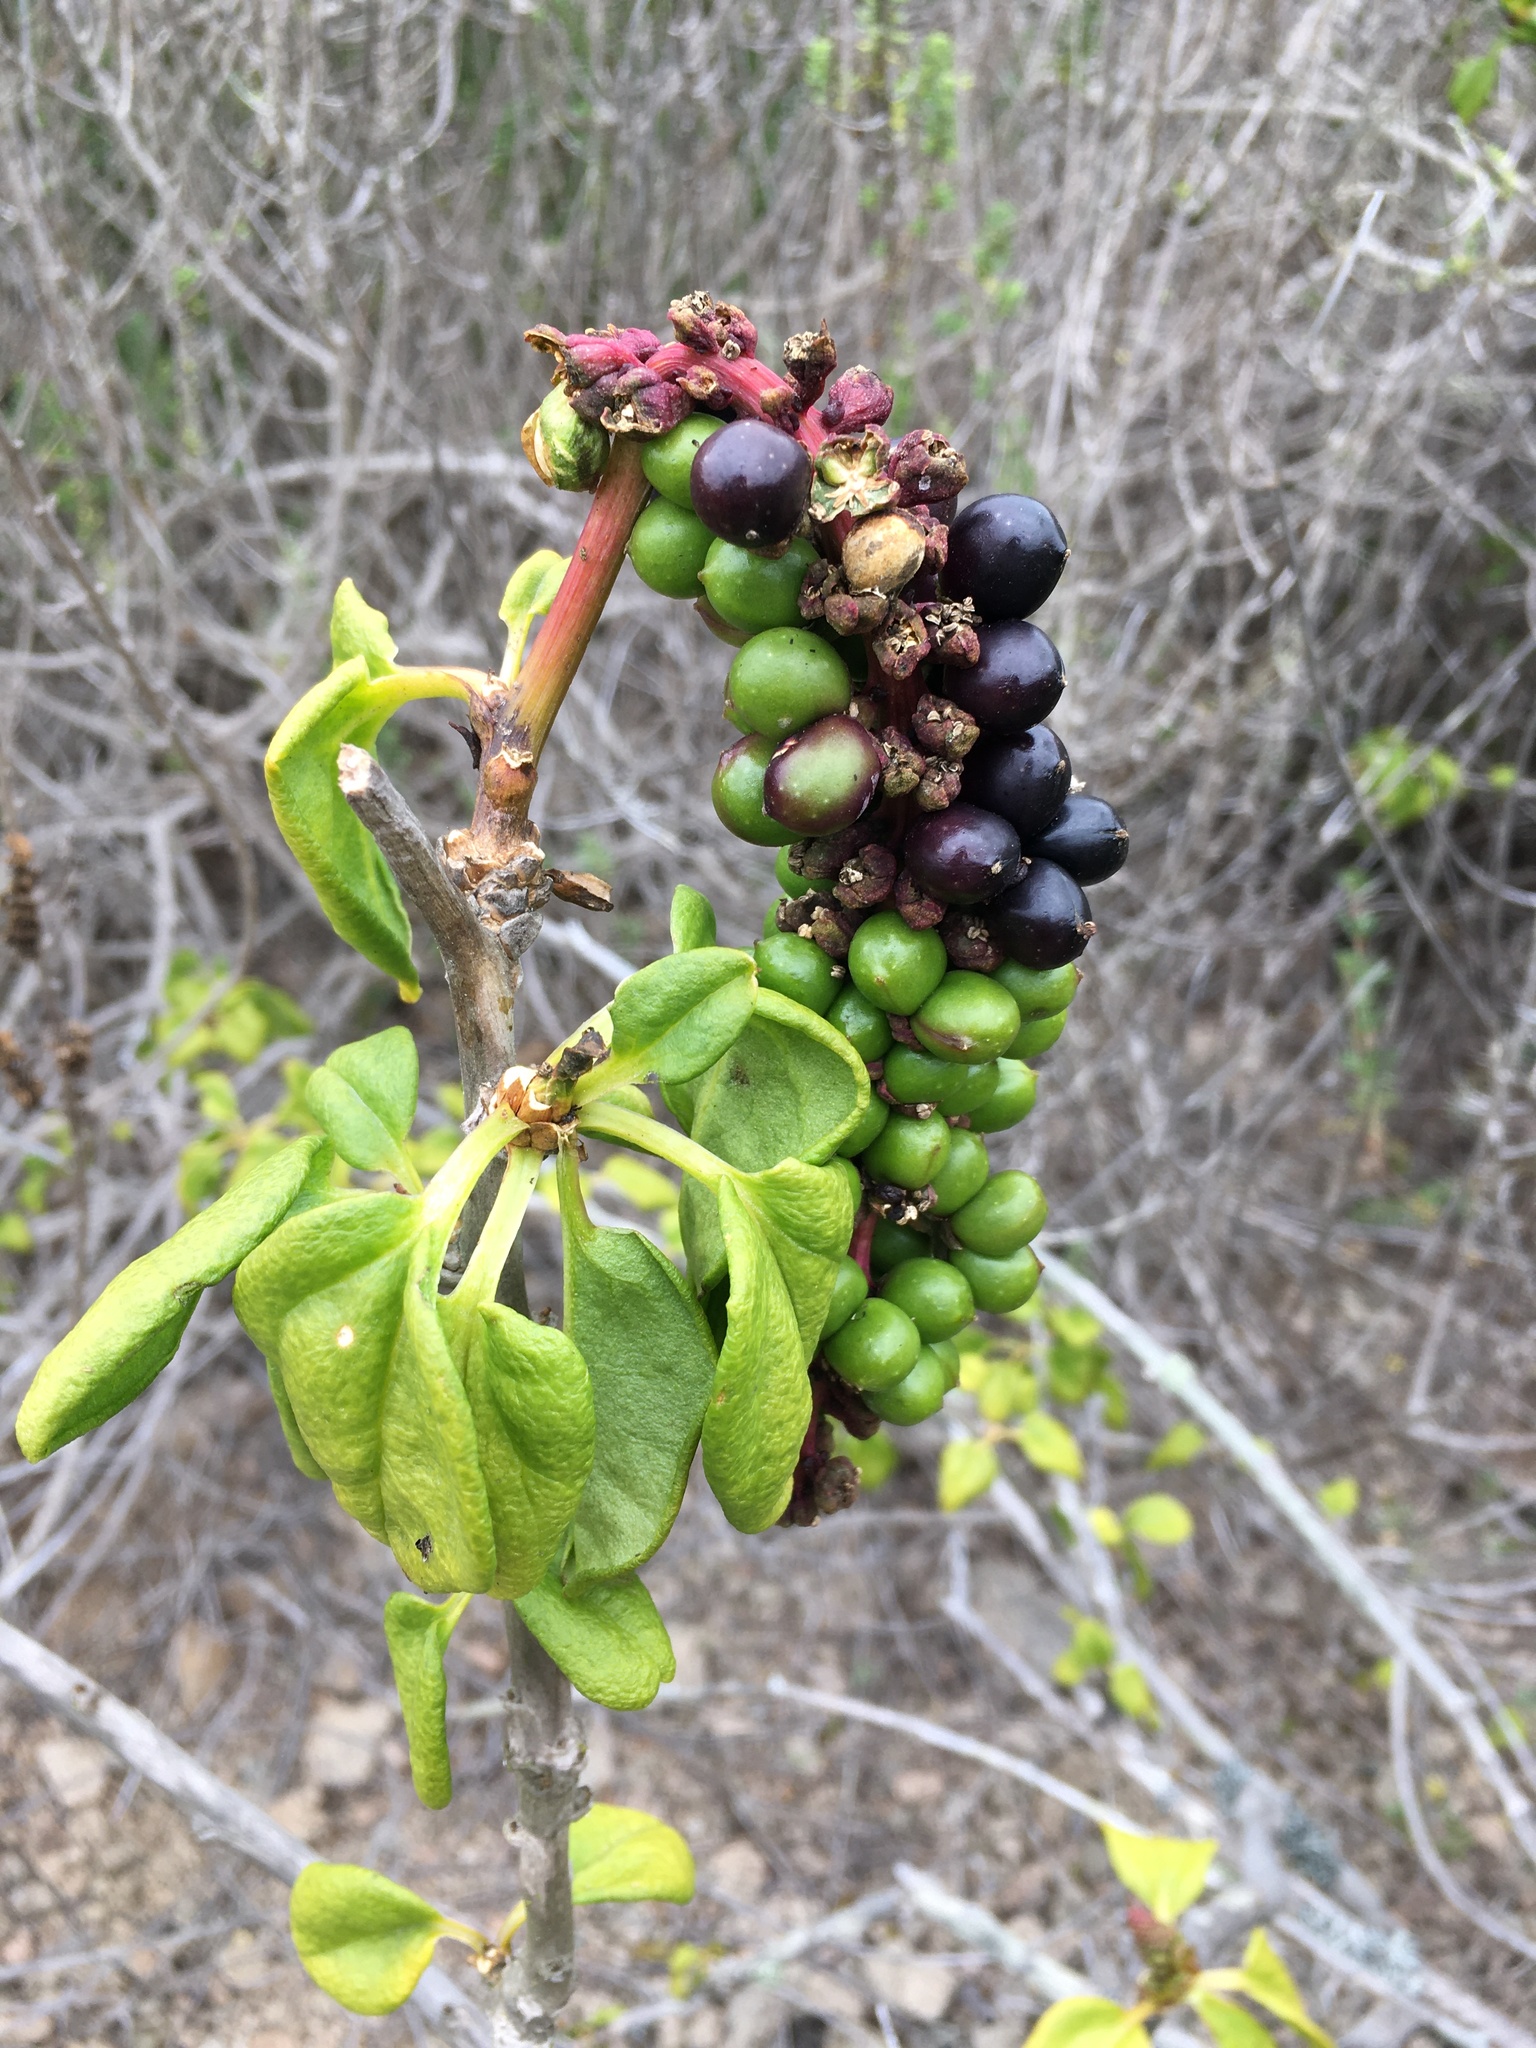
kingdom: Plantae
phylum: Tracheophyta
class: Magnoliopsida
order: Caryophyllales
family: Phytolaccaceae
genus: Anisomeria
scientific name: Anisomeria littoralis
